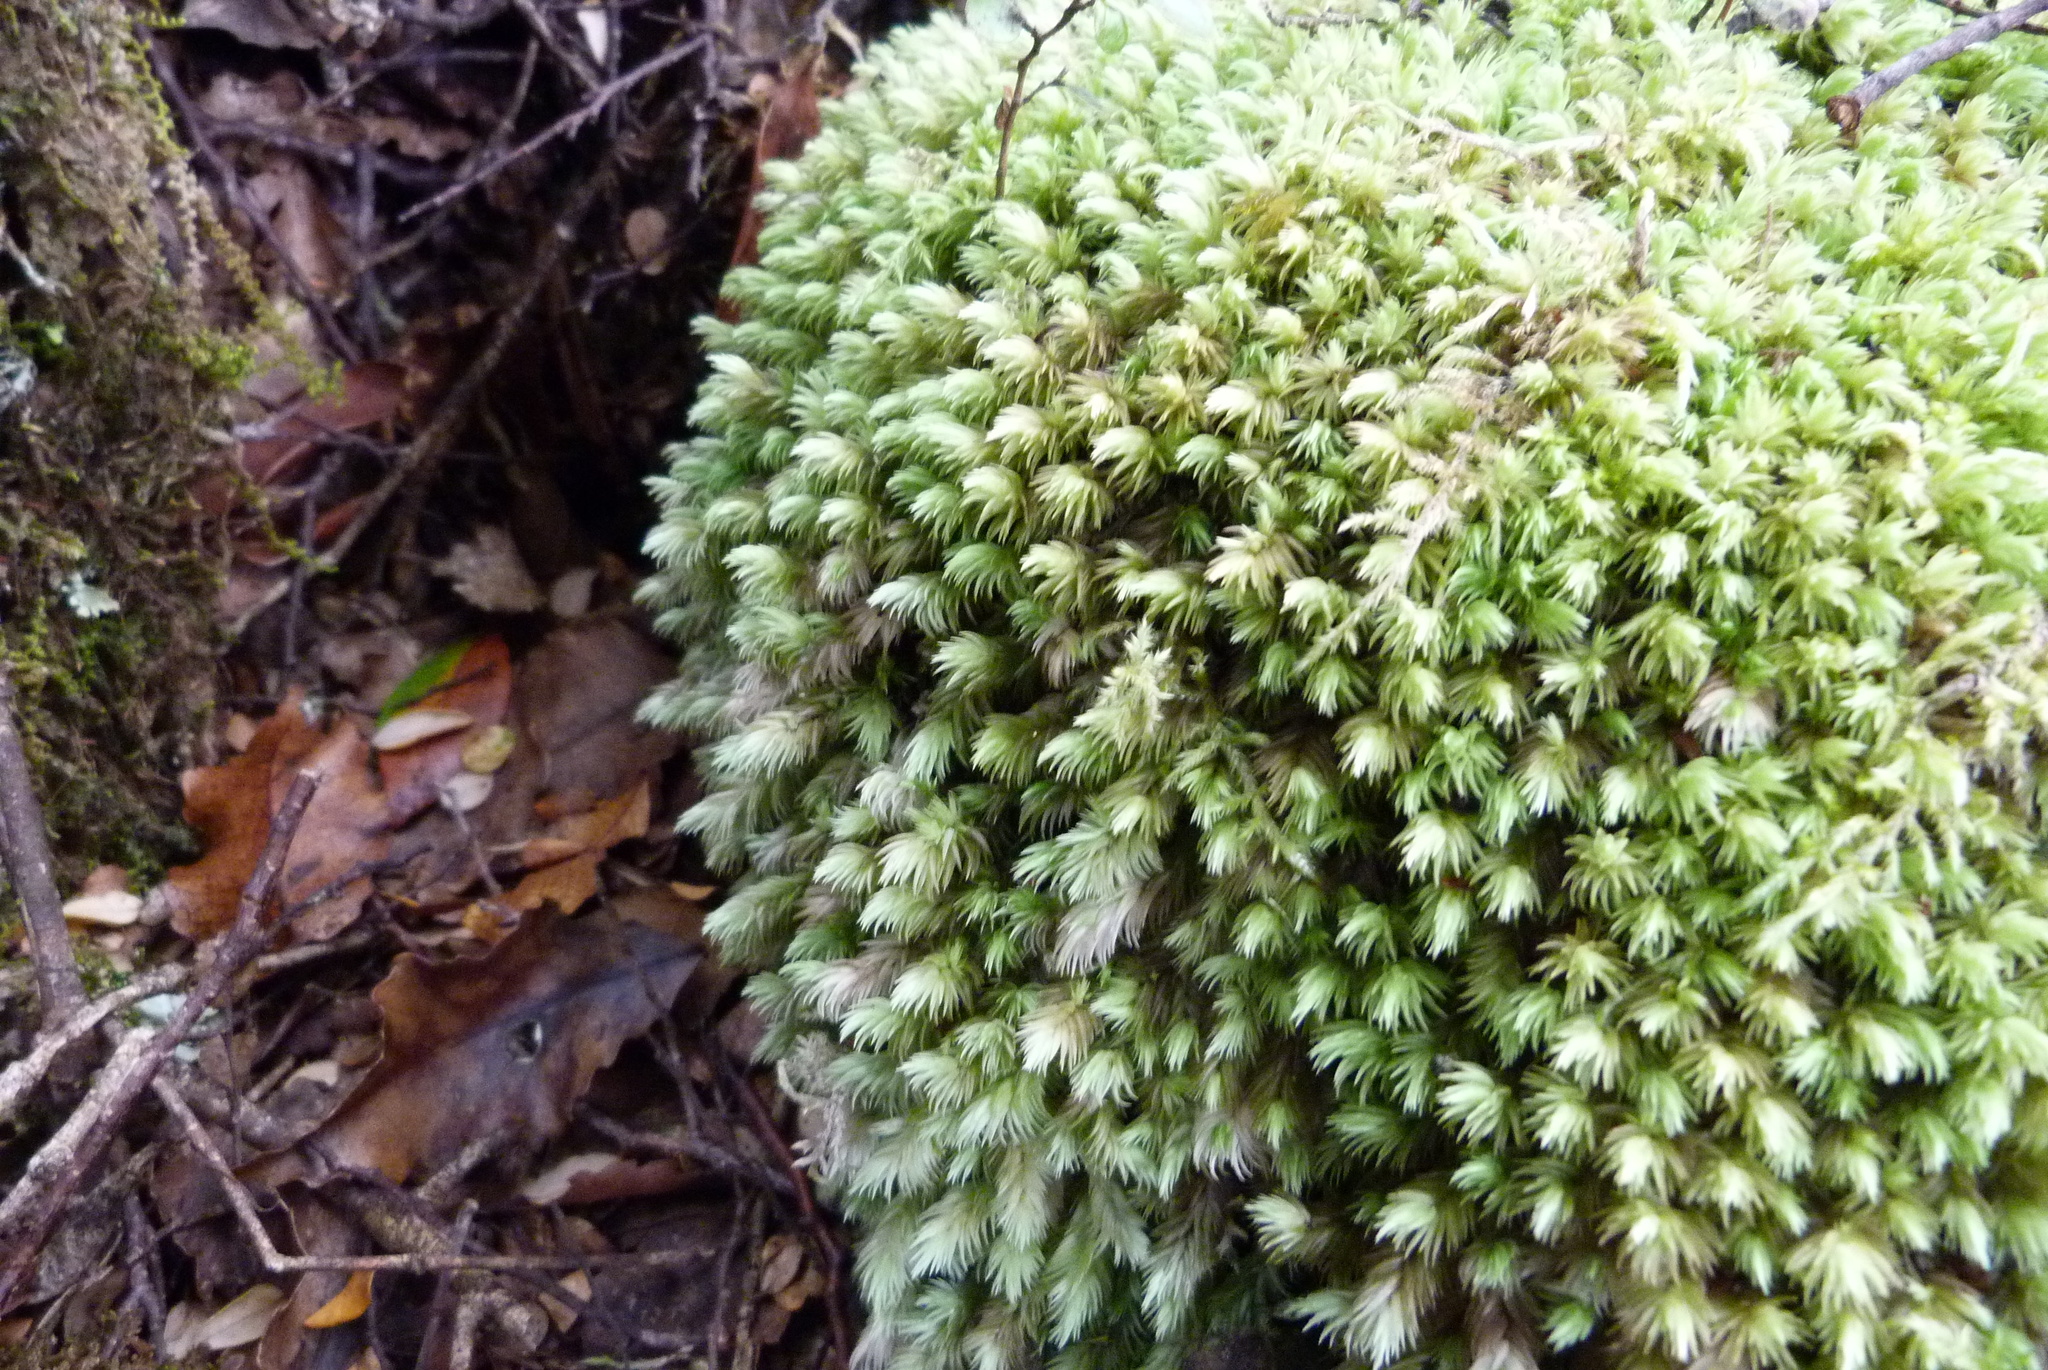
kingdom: Plantae
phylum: Bryophyta
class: Bryopsida
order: Dicranales
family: Leucobryaceae
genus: Leucobryum
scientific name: Leucobryum javense
